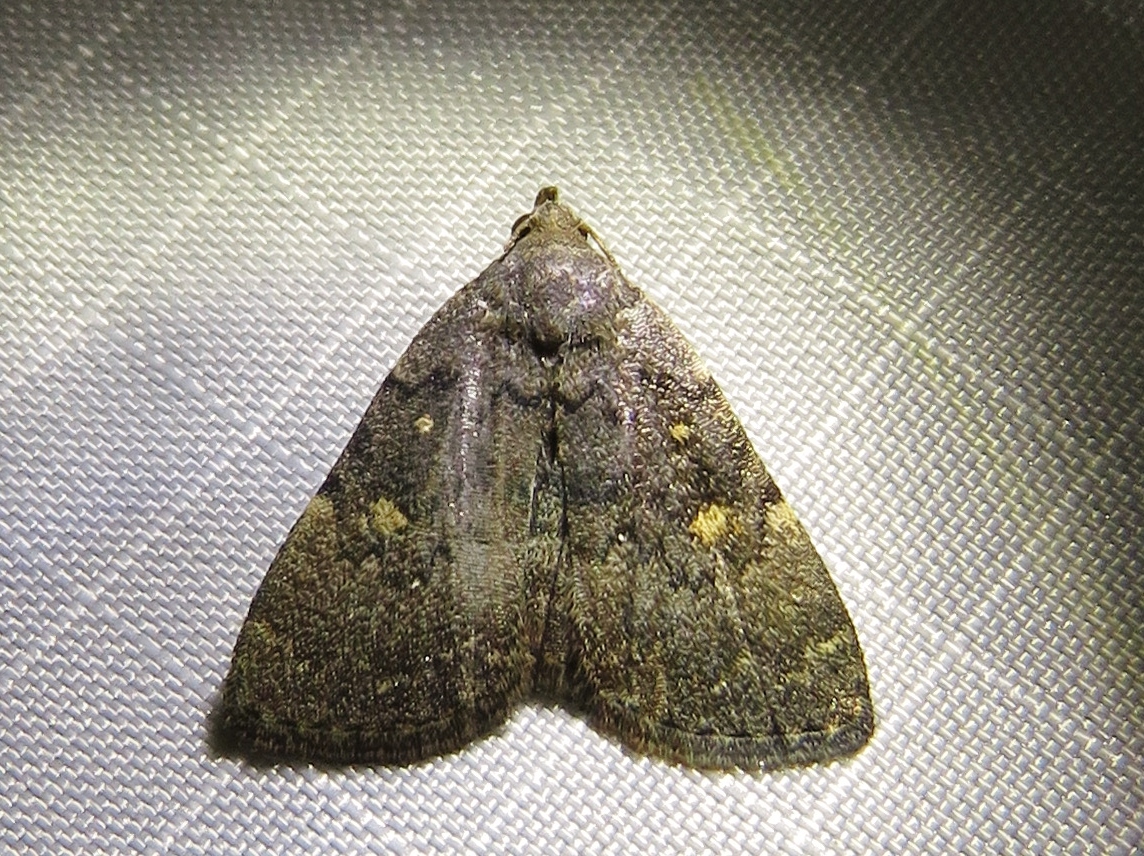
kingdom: Animalia
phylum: Arthropoda
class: Insecta
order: Lepidoptera
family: Erebidae
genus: Idia
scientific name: Idia aemula
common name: Common idia moth
